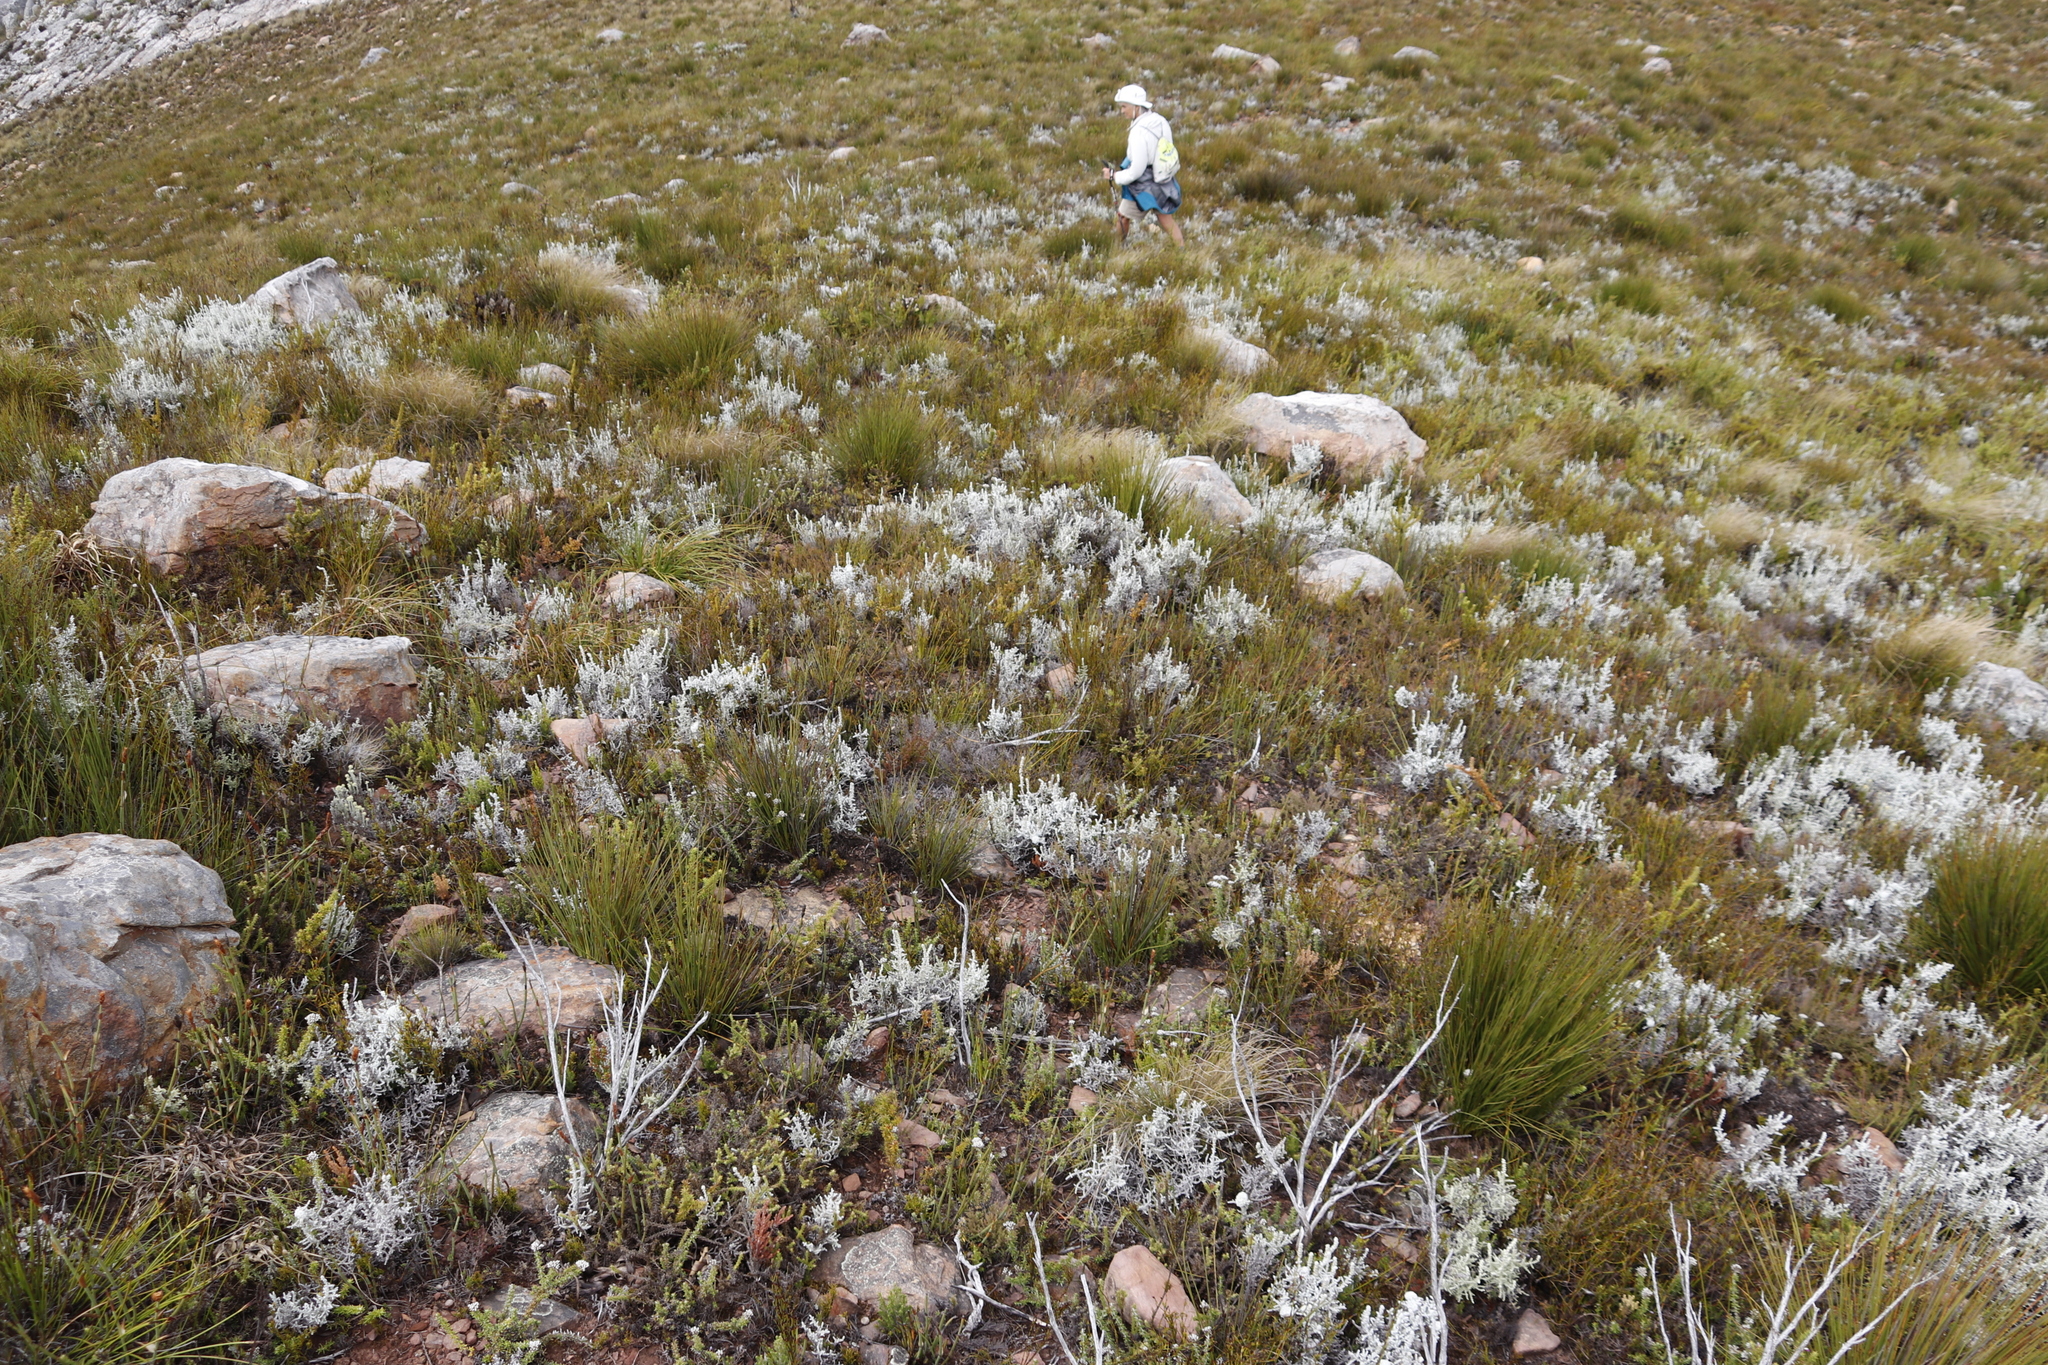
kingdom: Plantae
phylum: Tracheophyta
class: Magnoliopsida
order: Asterales
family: Asteraceae
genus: Seriphium
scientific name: Seriphium plumosum
